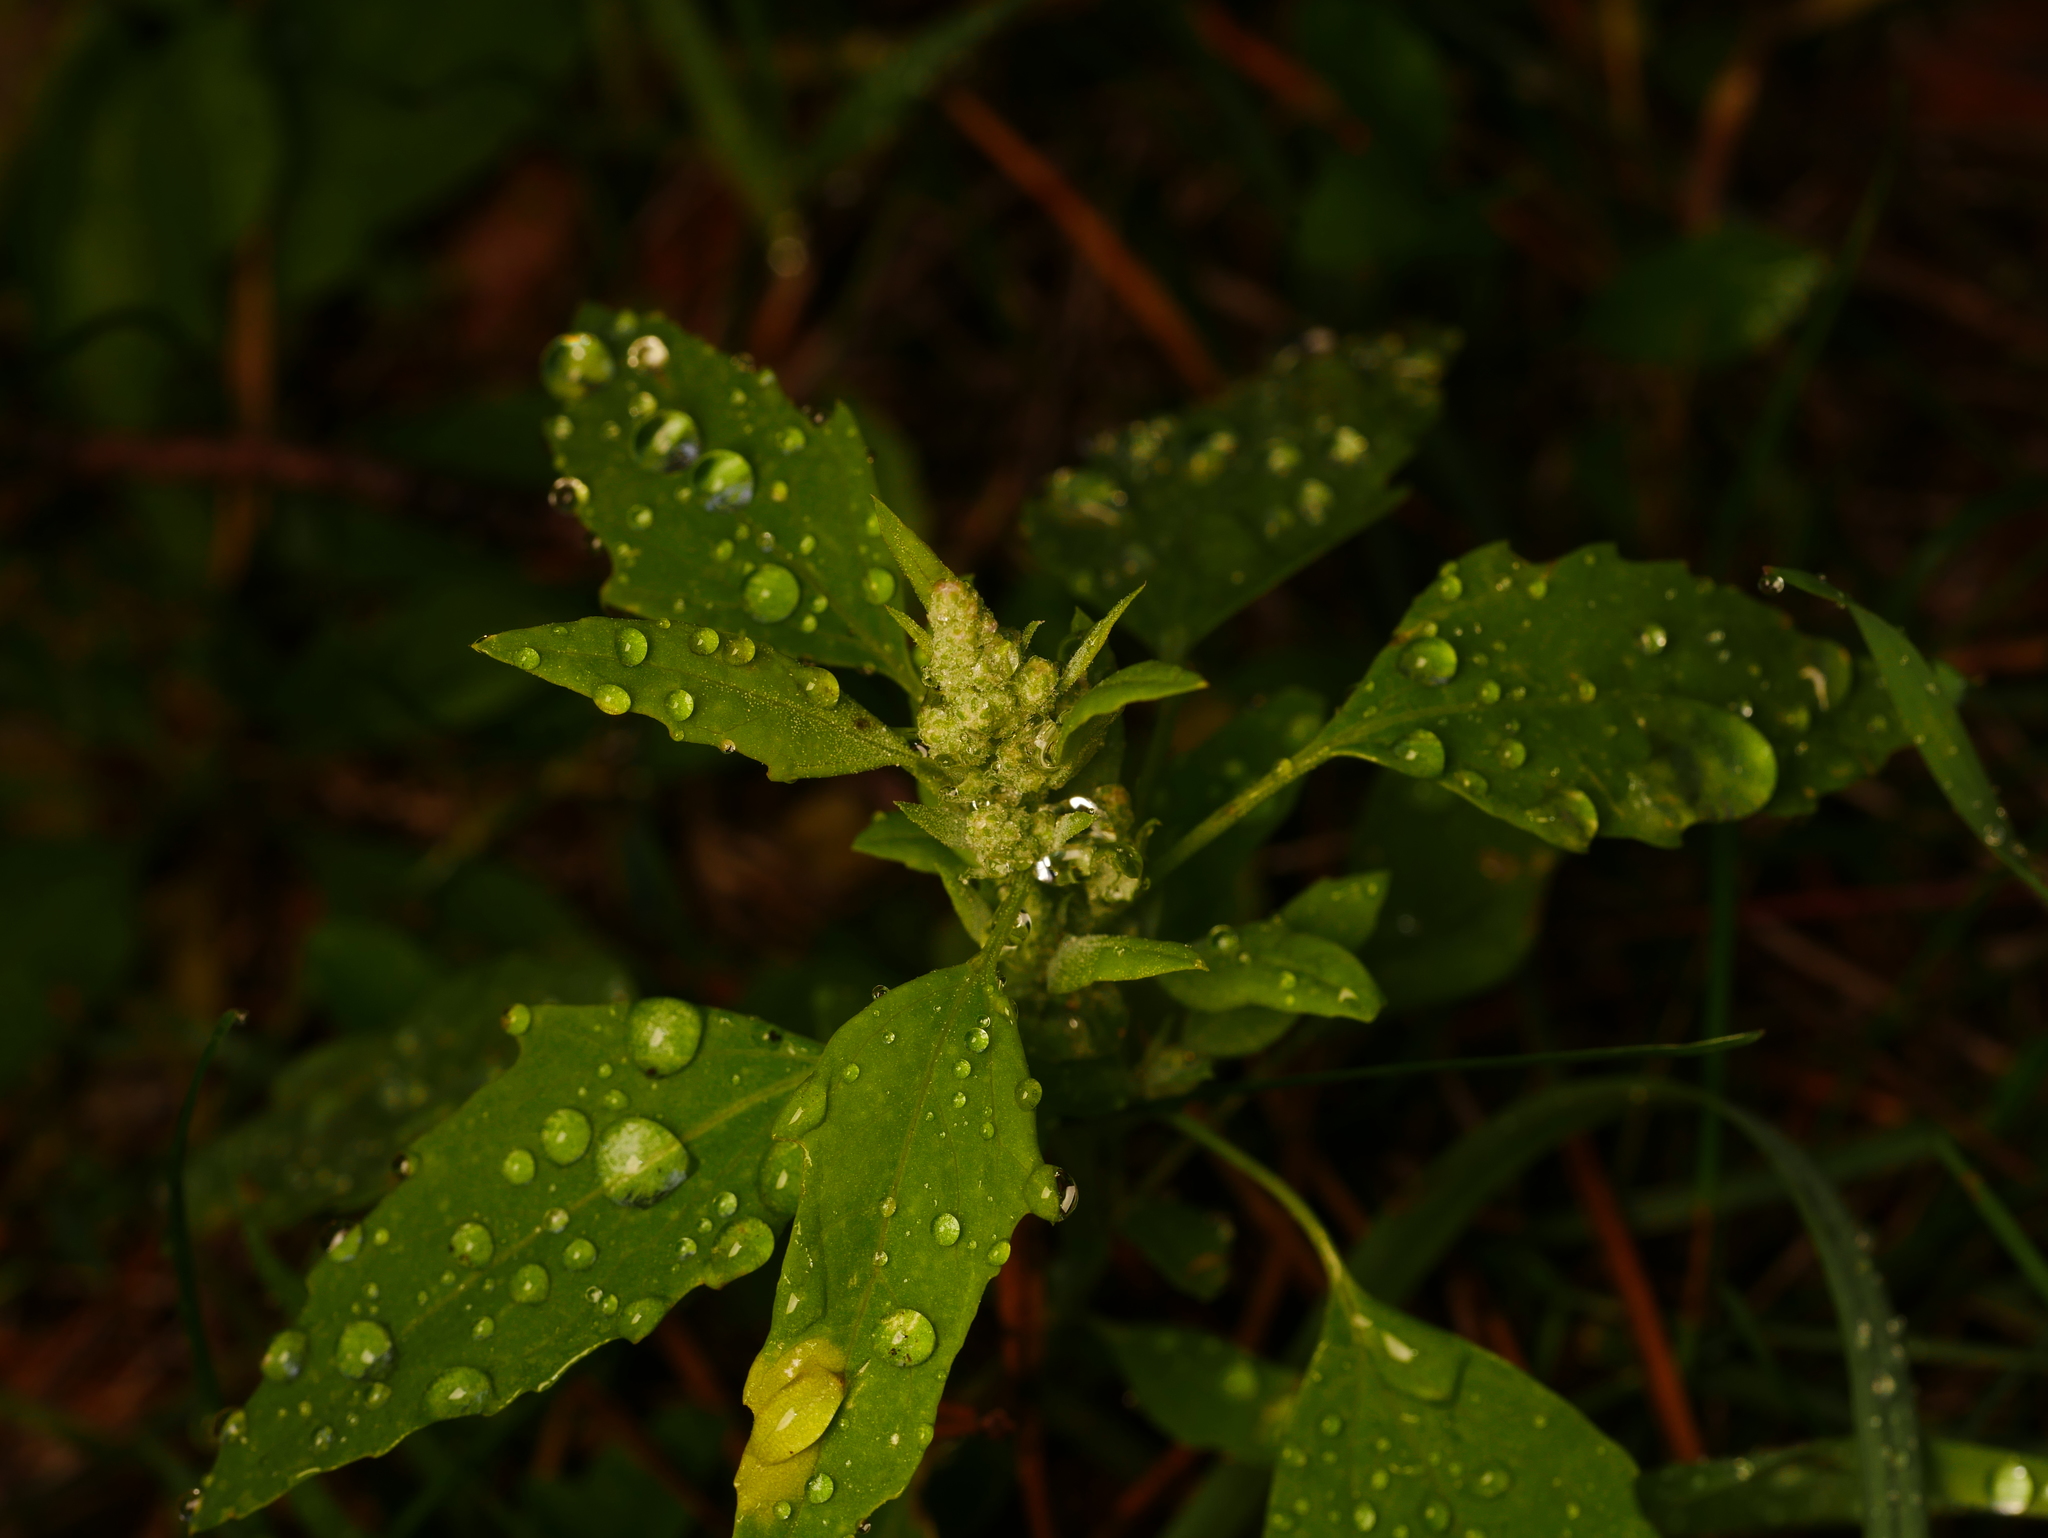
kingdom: Plantae
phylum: Tracheophyta
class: Magnoliopsida
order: Caryophyllales
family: Amaranthaceae
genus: Chenopodium
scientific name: Chenopodium album
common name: Fat-hen
